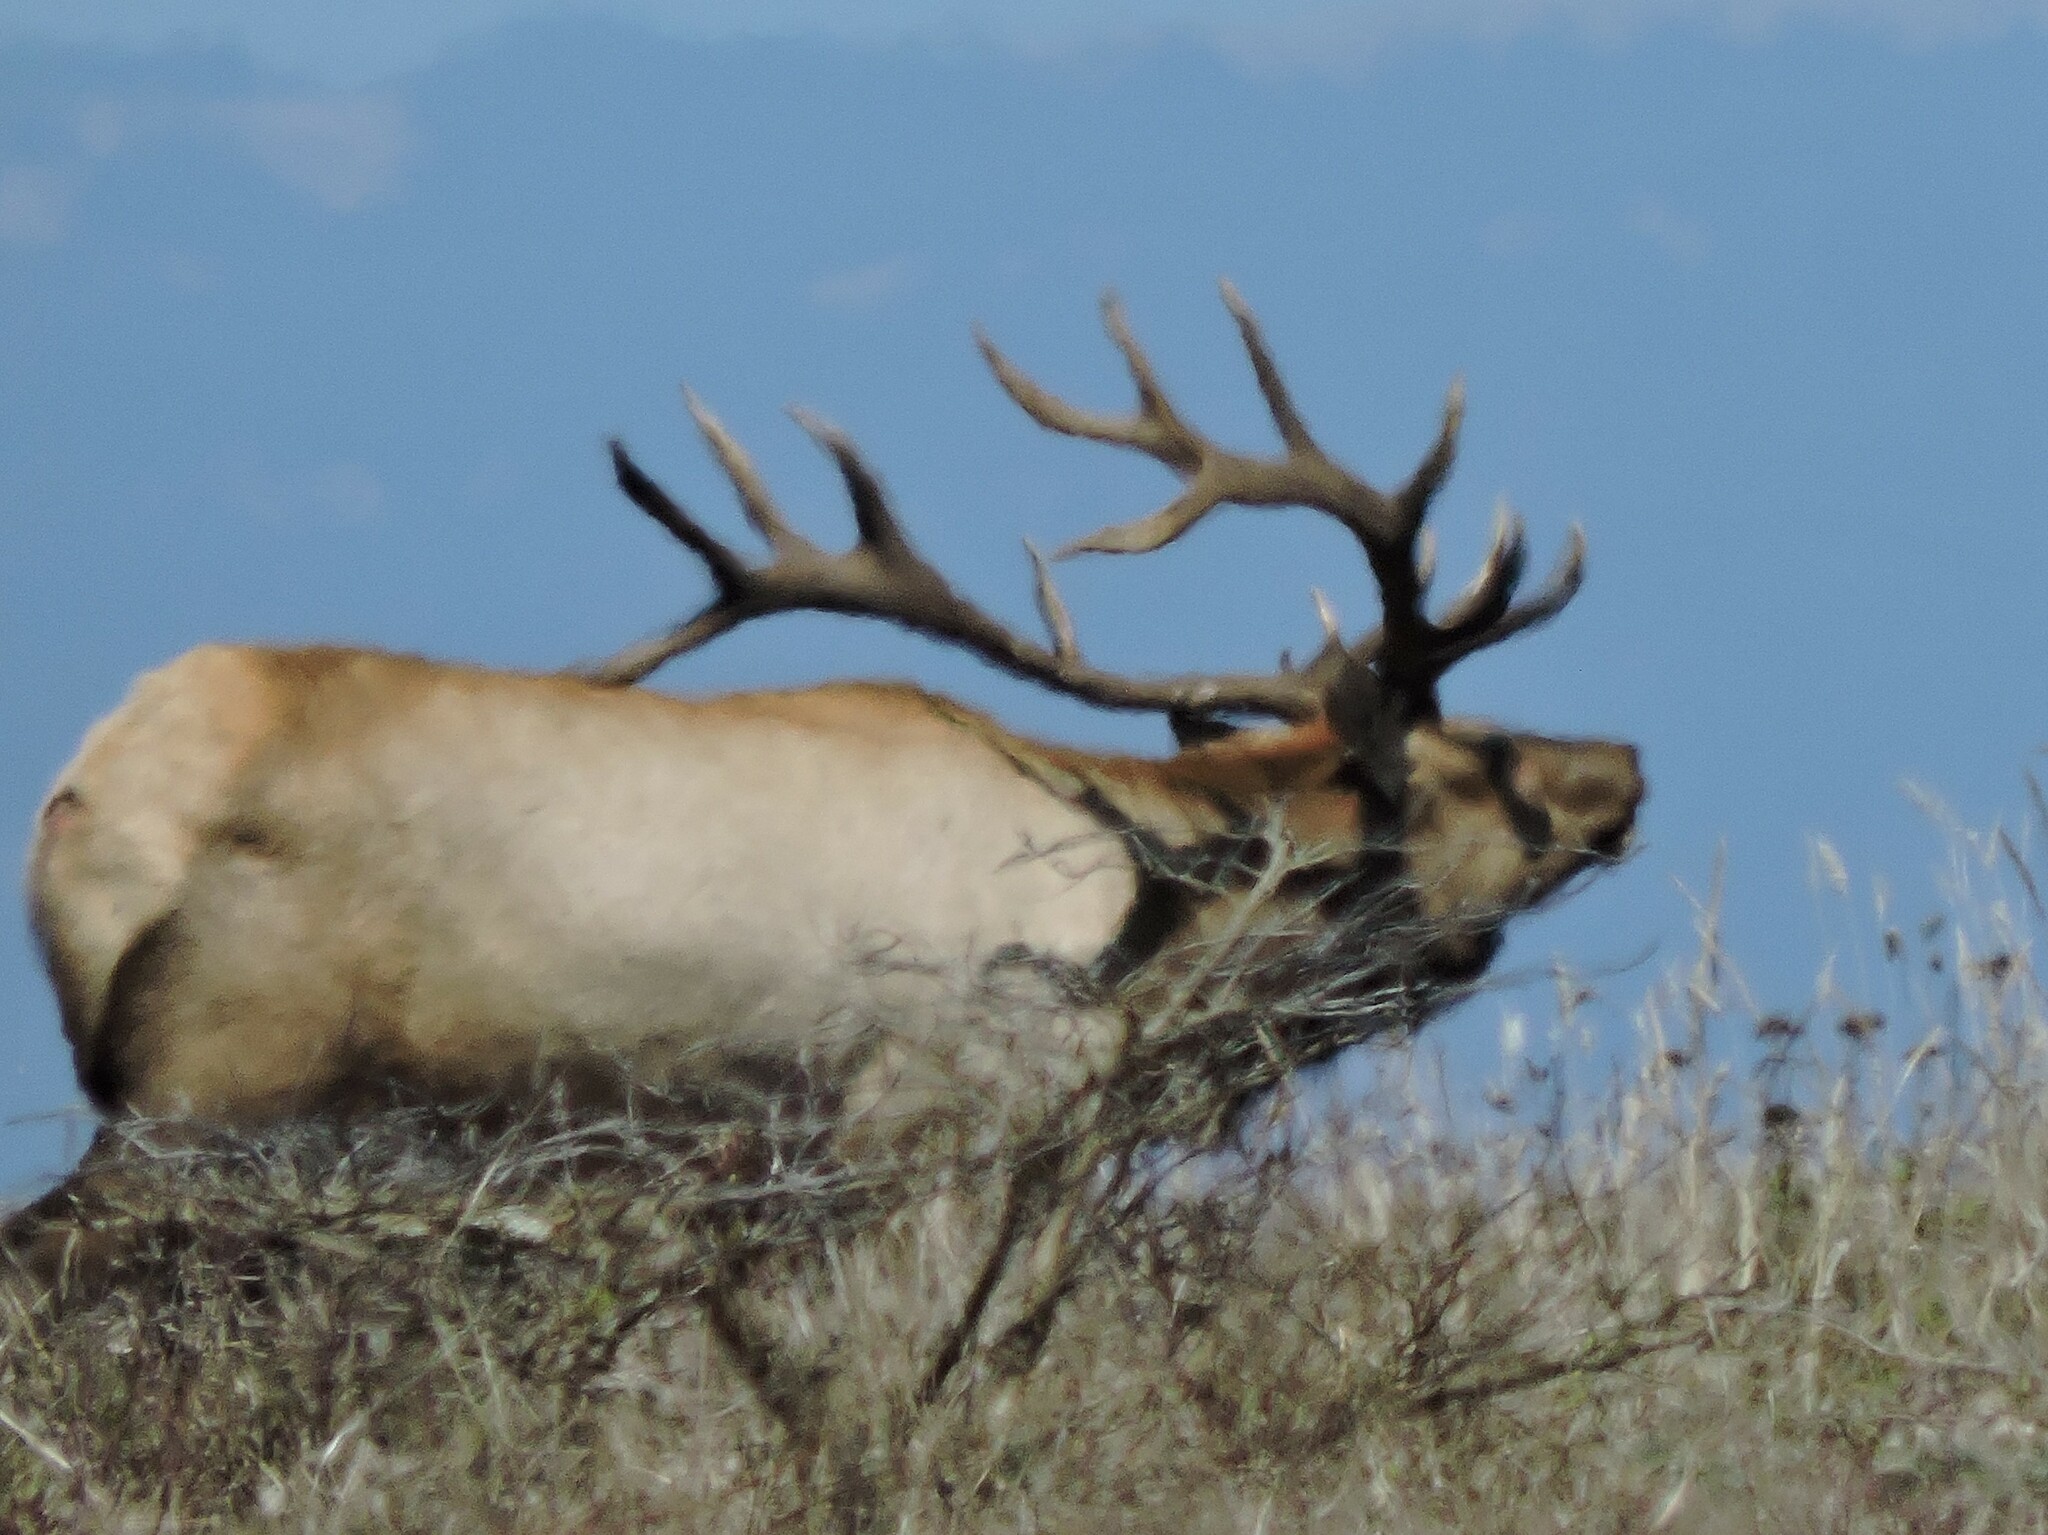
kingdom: Animalia
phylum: Chordata
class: Mammalia
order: Artiodactyla
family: Cervidae
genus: Cervus
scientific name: Cervus elaphus
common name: Red deer
